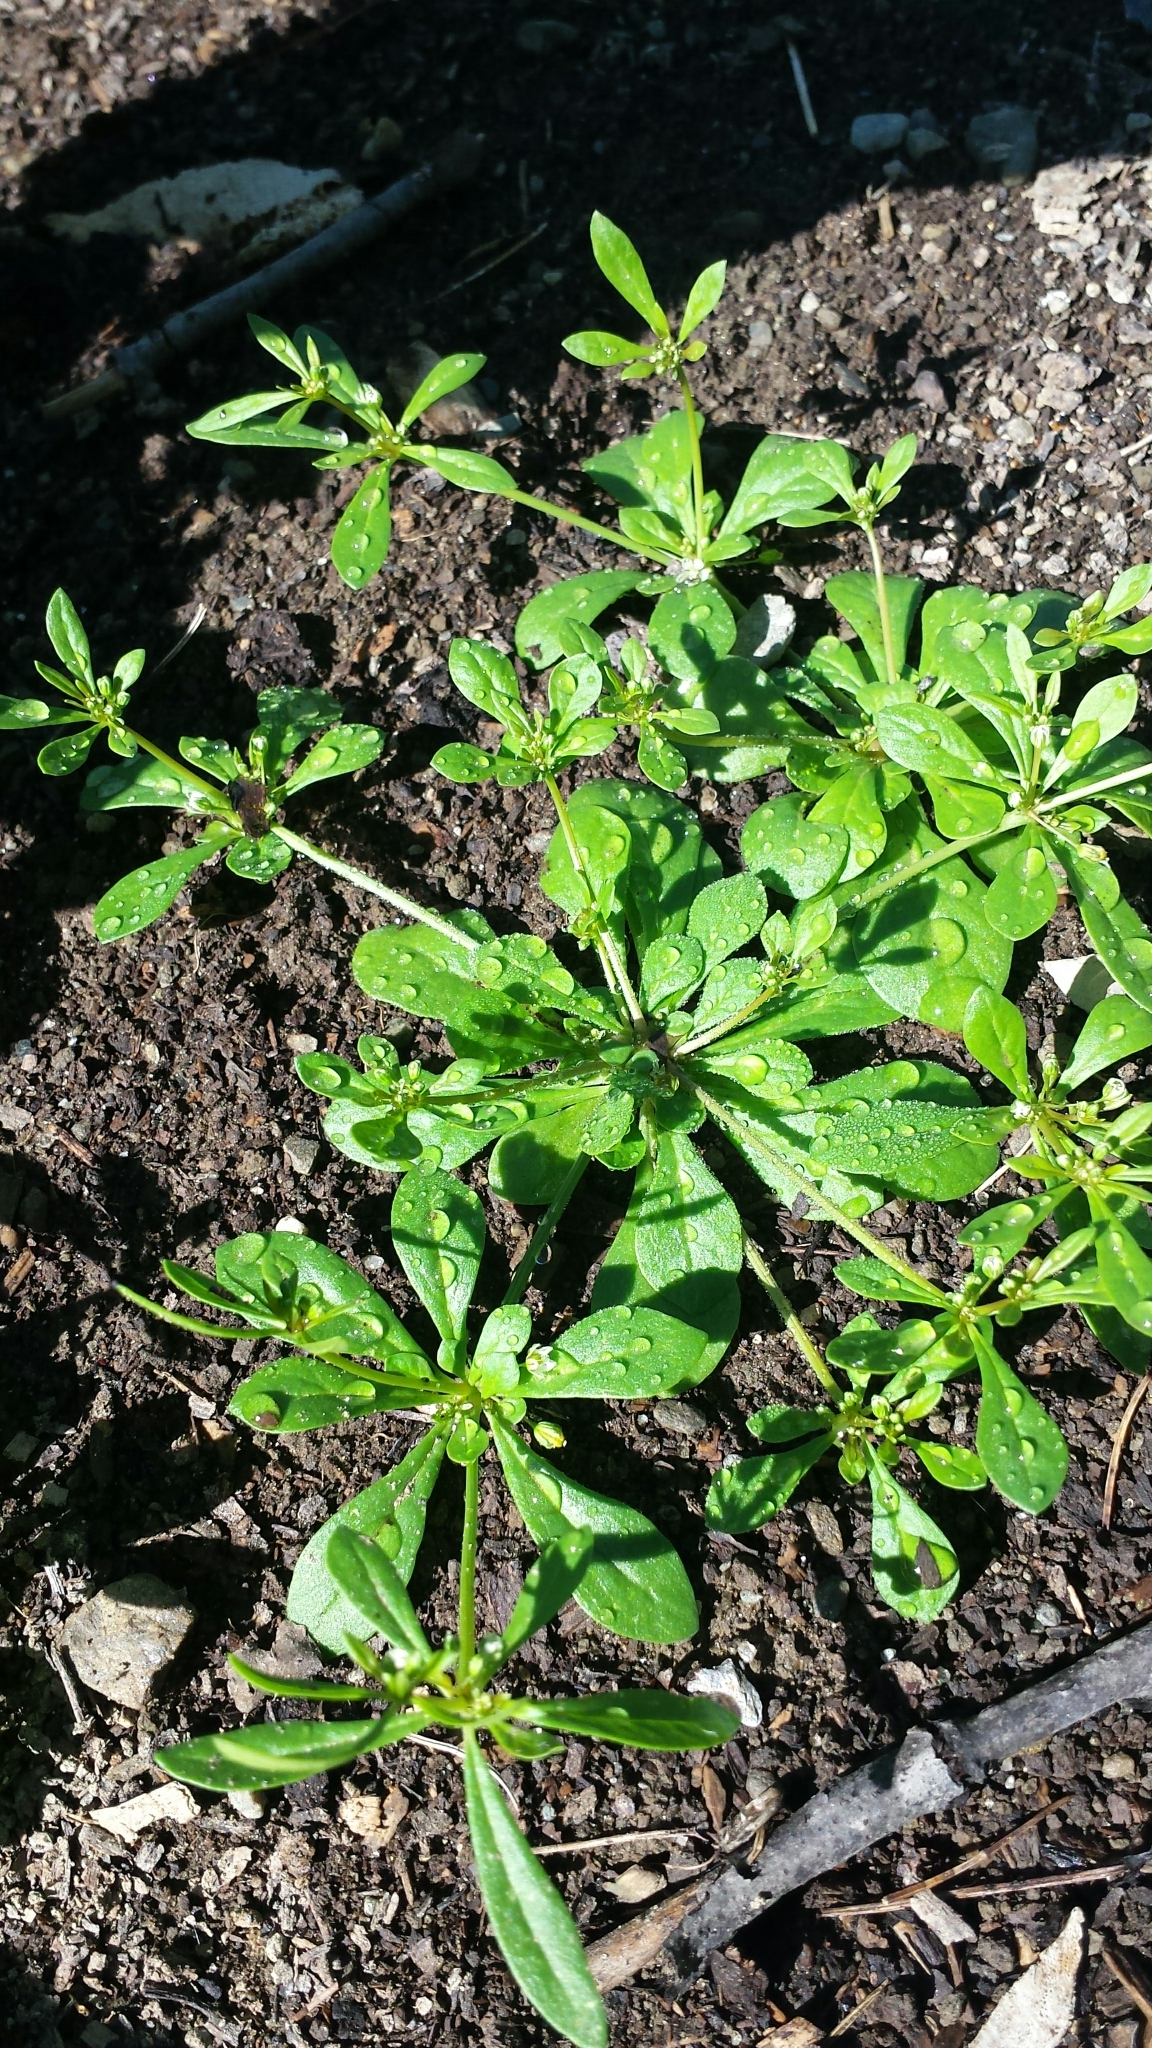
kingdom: Plantae
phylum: Tracheophyta
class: Magnoliopsida
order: Caryophyllales
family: Molluginaceae
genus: Mollugo
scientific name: Mollugo verticillata
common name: Green carpetweed
